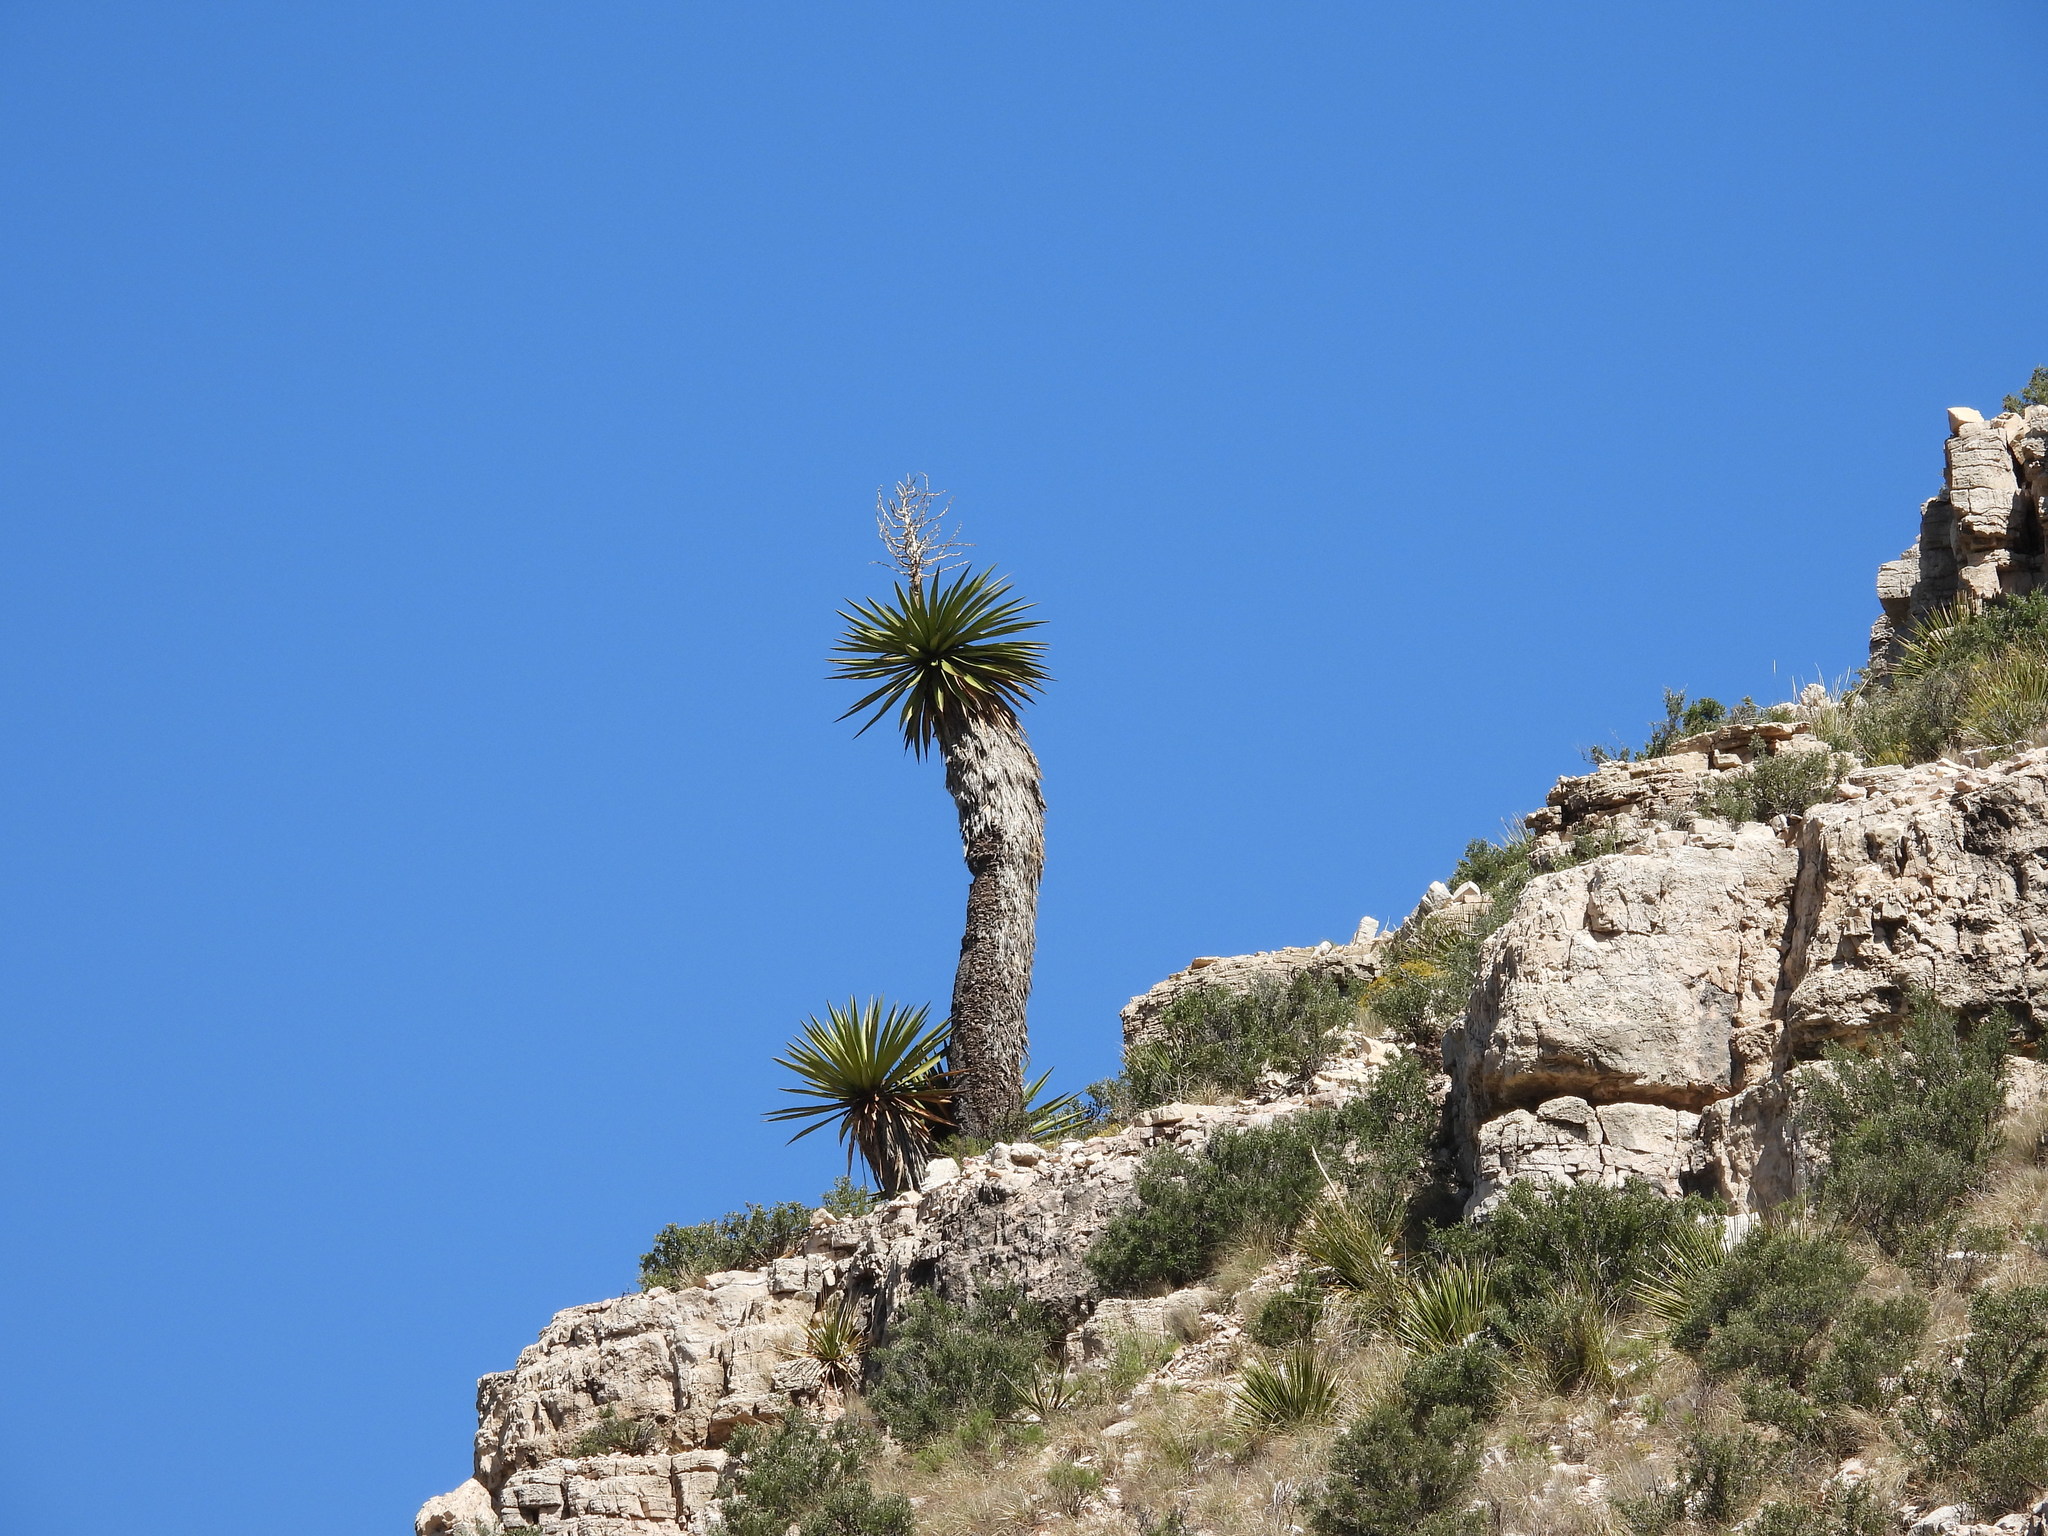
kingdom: Plantae
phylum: Tracheophyta
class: Liliopsida
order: Asparagales
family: Asparagaceae
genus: Yucca
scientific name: Yucca faxoniana
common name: Spanish dagger
